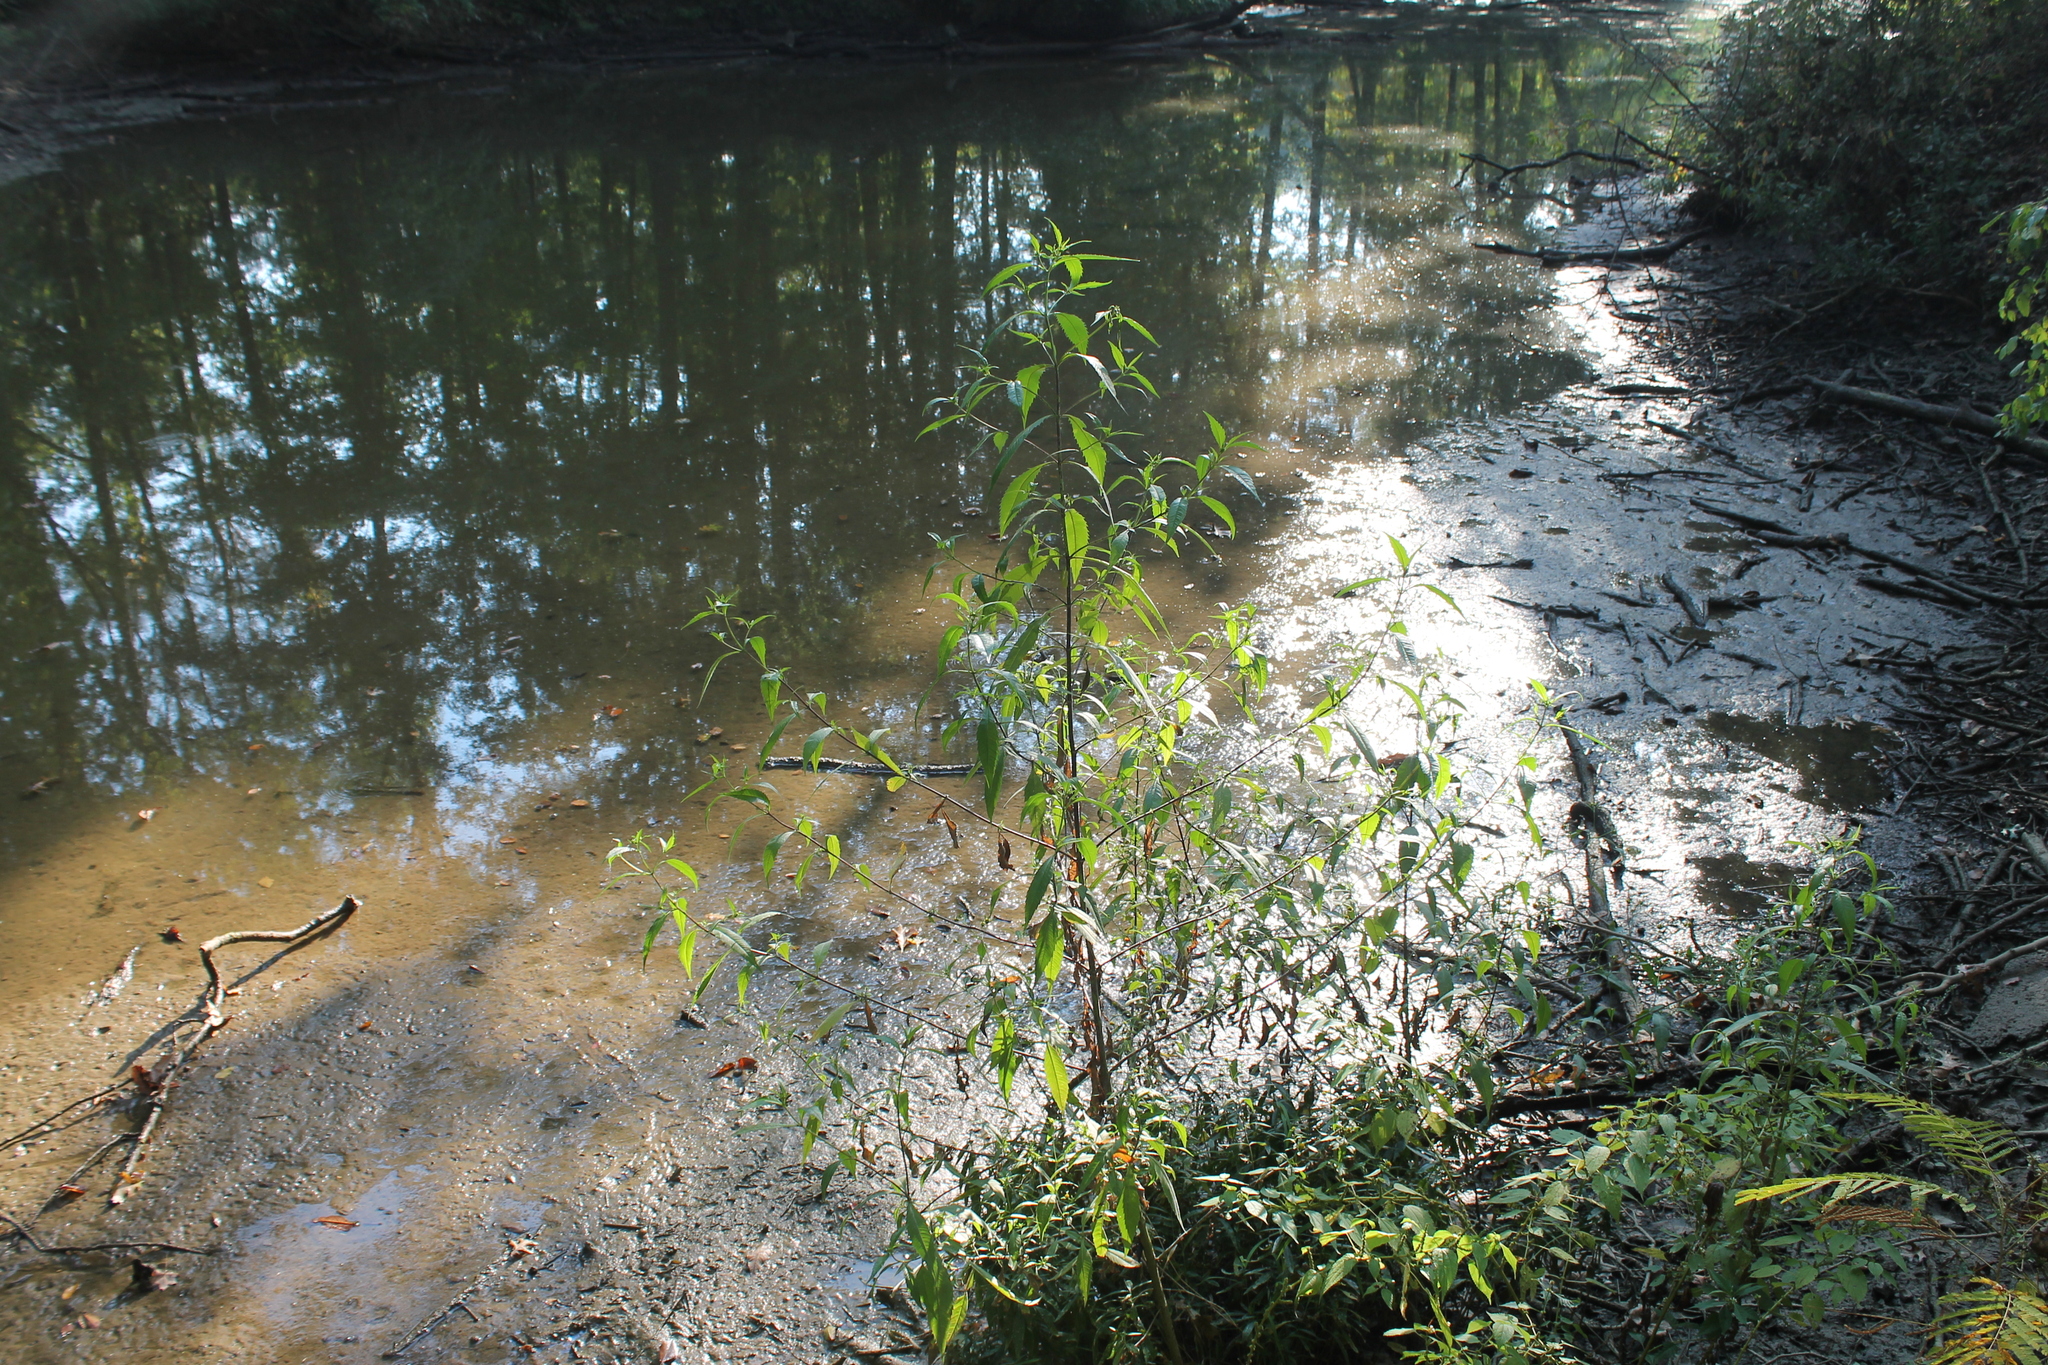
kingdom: Plantae
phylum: Tracheophyta
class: Magnoliopsida
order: Asterales
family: Asteraceae
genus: Bidens
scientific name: Bidens connata
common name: London bur-marigold
